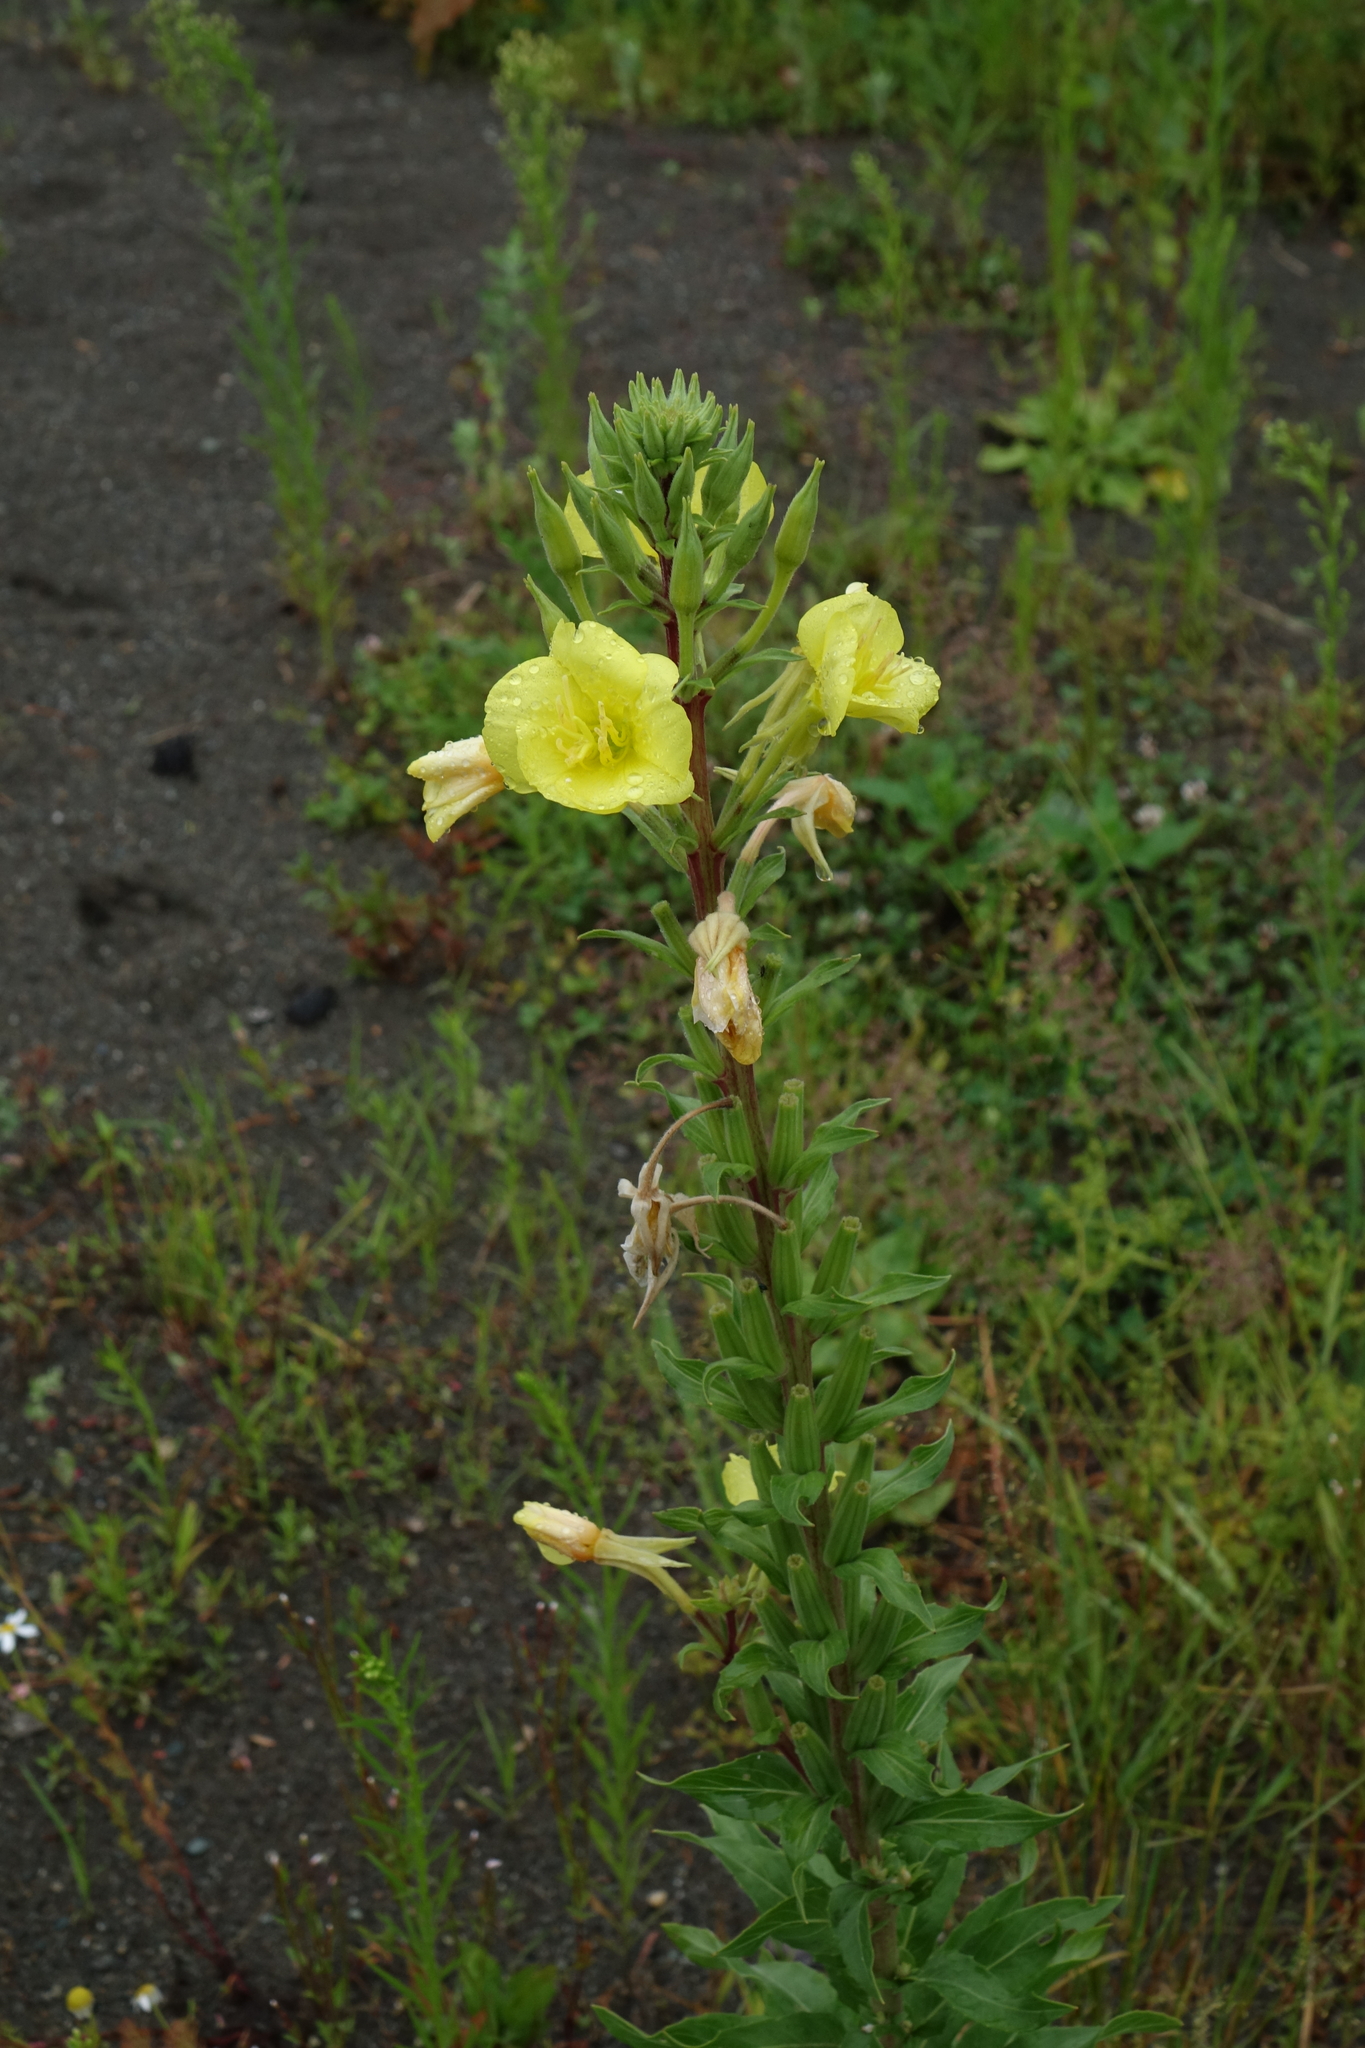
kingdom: Plantae
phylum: Tracheophyta
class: Magnoliopsida
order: Myrtales
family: Onagraceae
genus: Oenothera
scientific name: Oenothera rubricaulis
